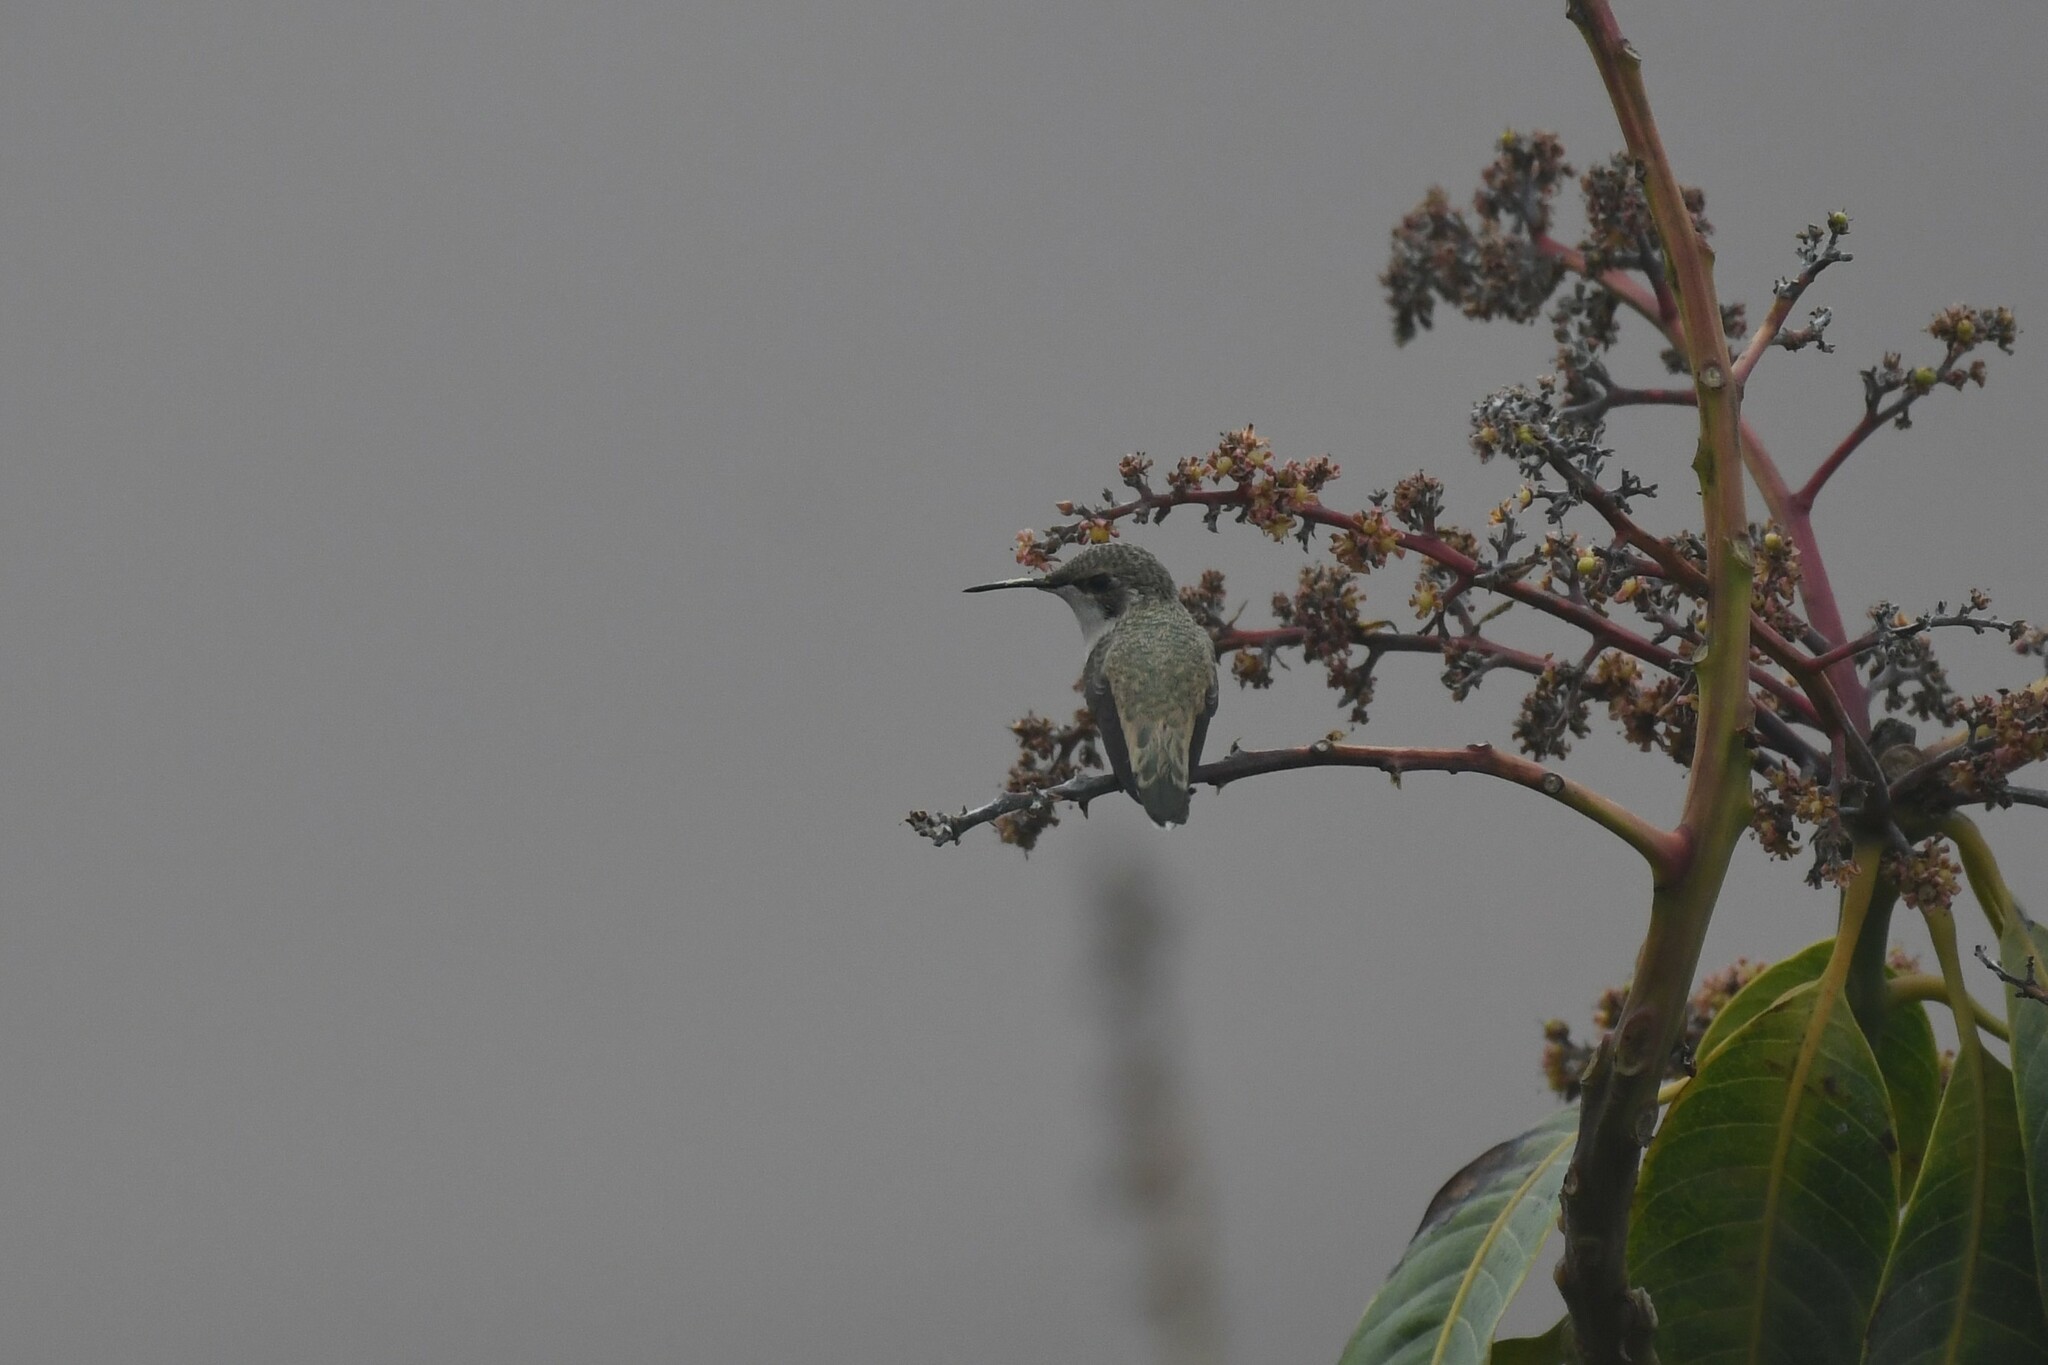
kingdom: Animalia
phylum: Chordata
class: Aves
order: Apodiformes
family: Trochilidae
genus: Thaumastura
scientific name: Thaumastura cora
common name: Peruvian sheartail
